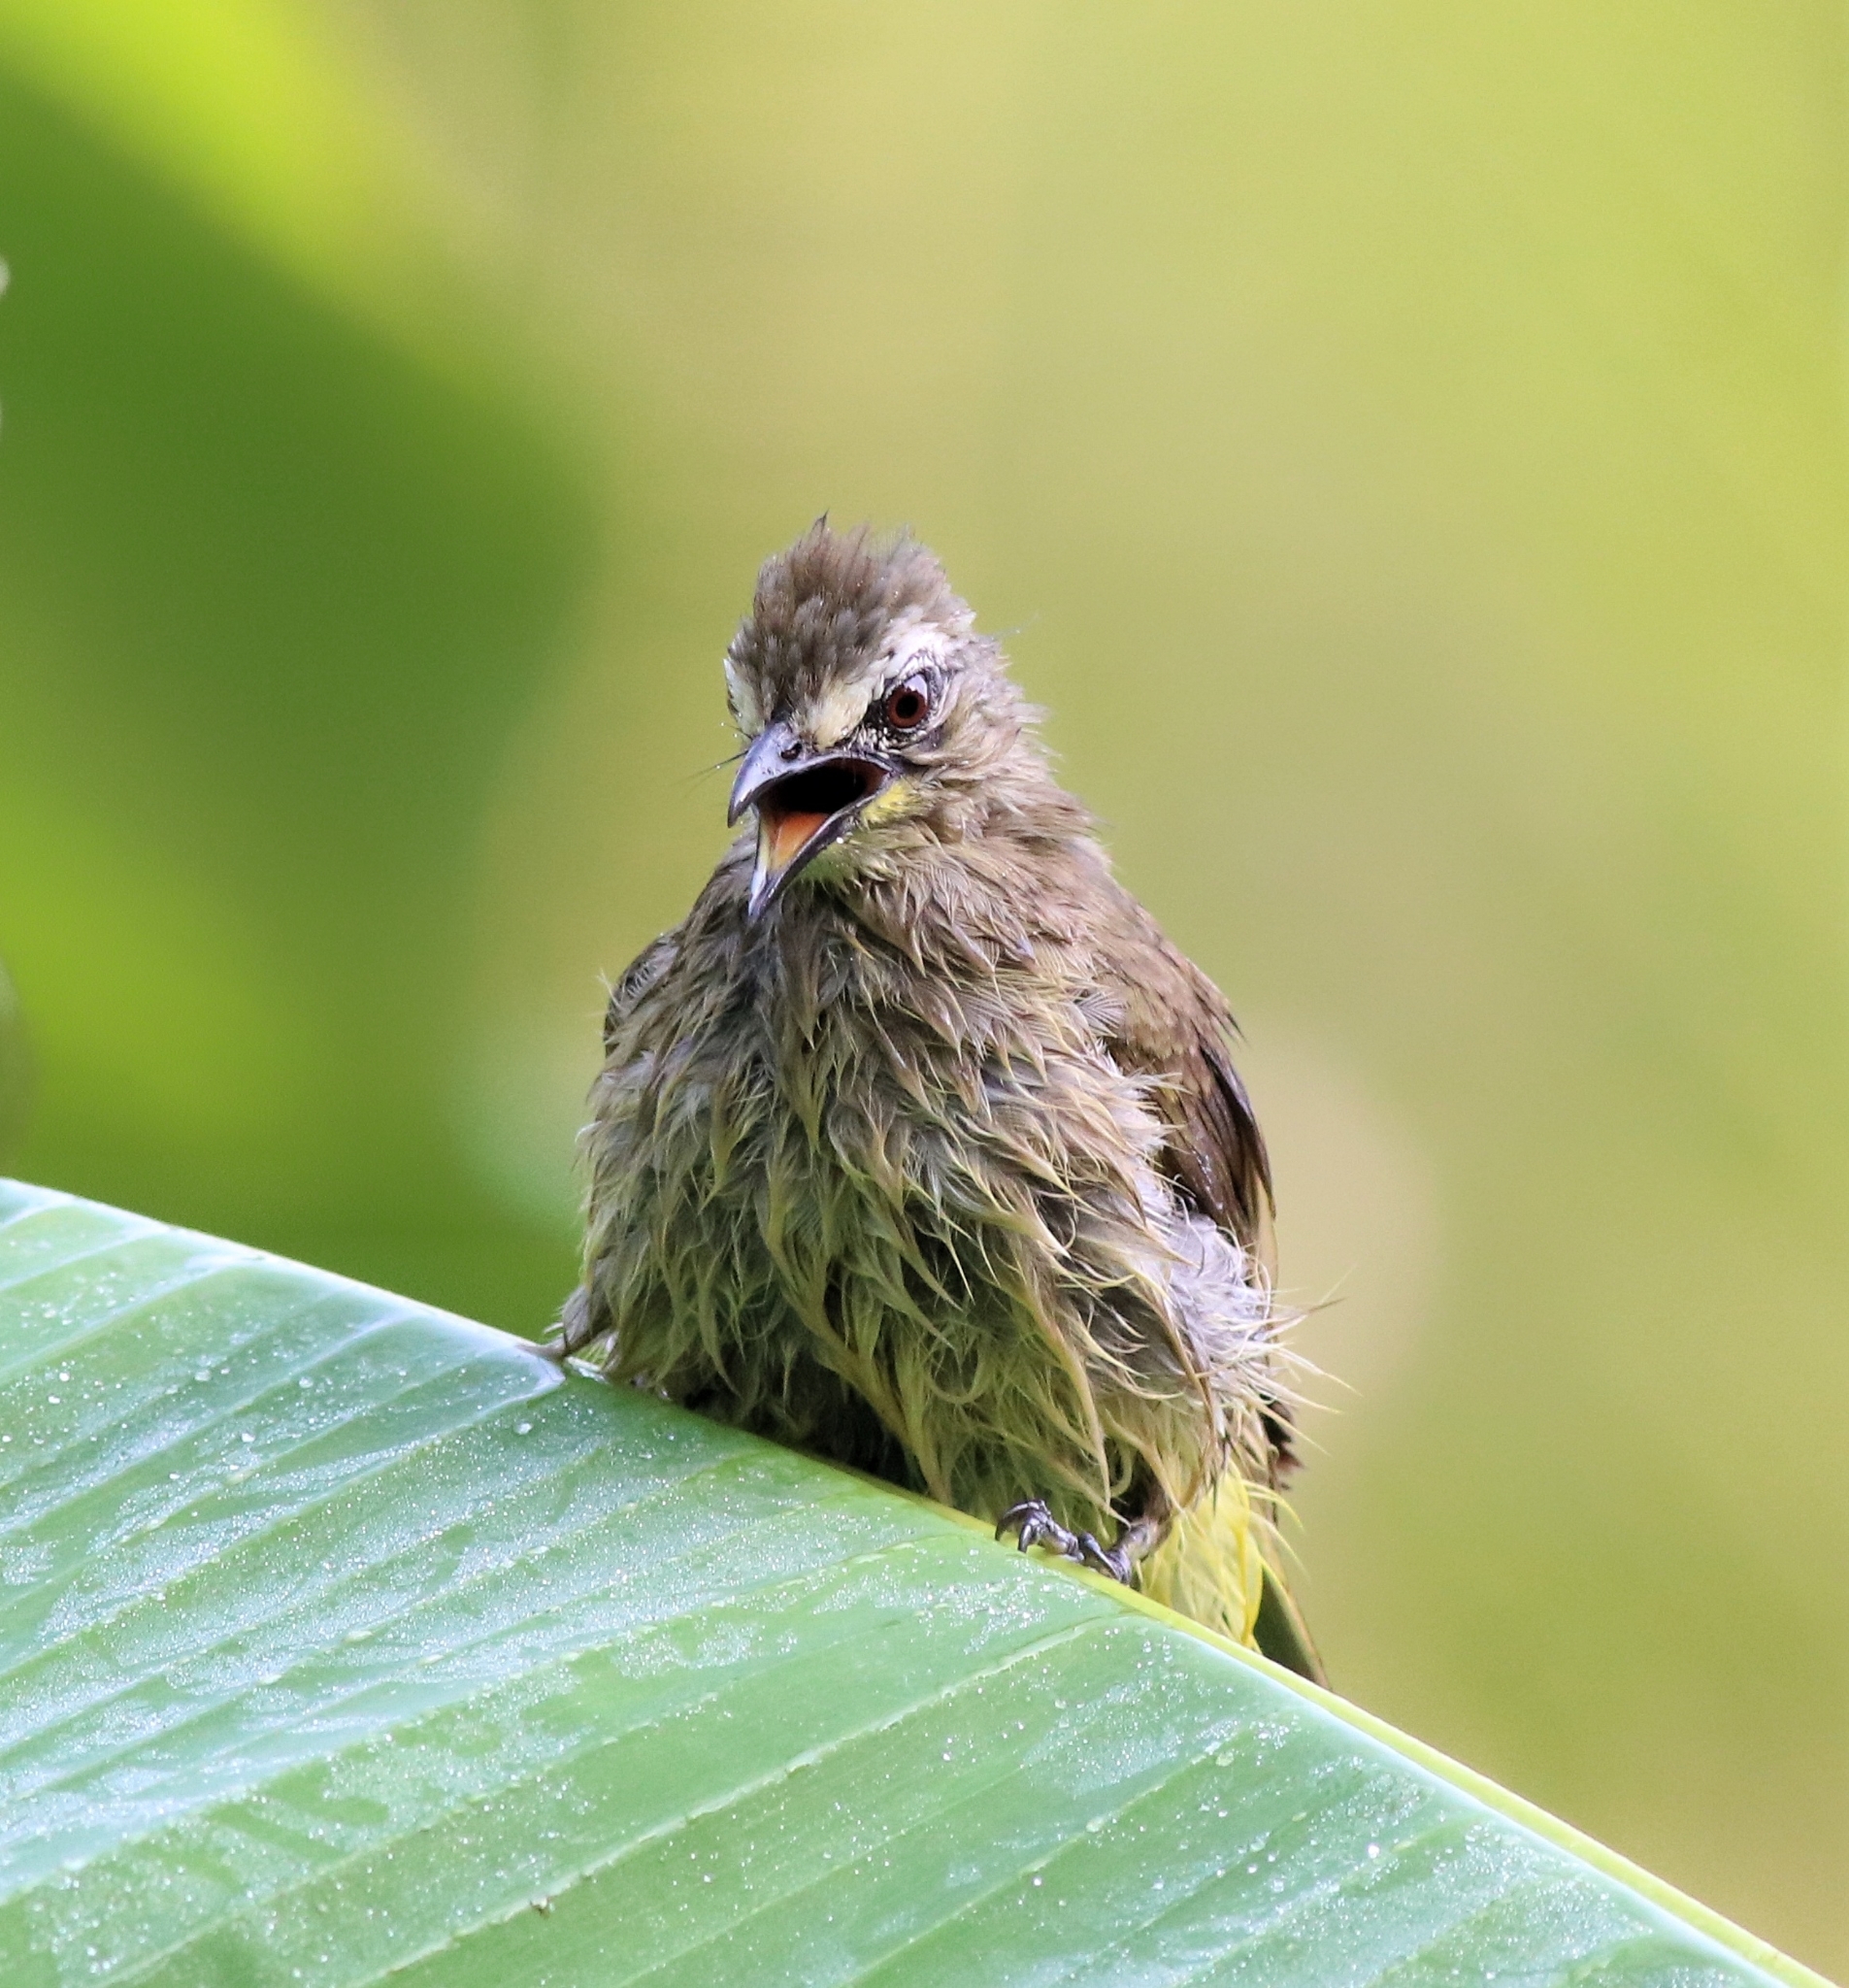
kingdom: Animalia
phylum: Chordata
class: Aves
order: Passeriformes
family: Pycnonotidae
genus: Pycnonotus
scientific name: Pycnonotus luteolus
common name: White-browed bulbul
